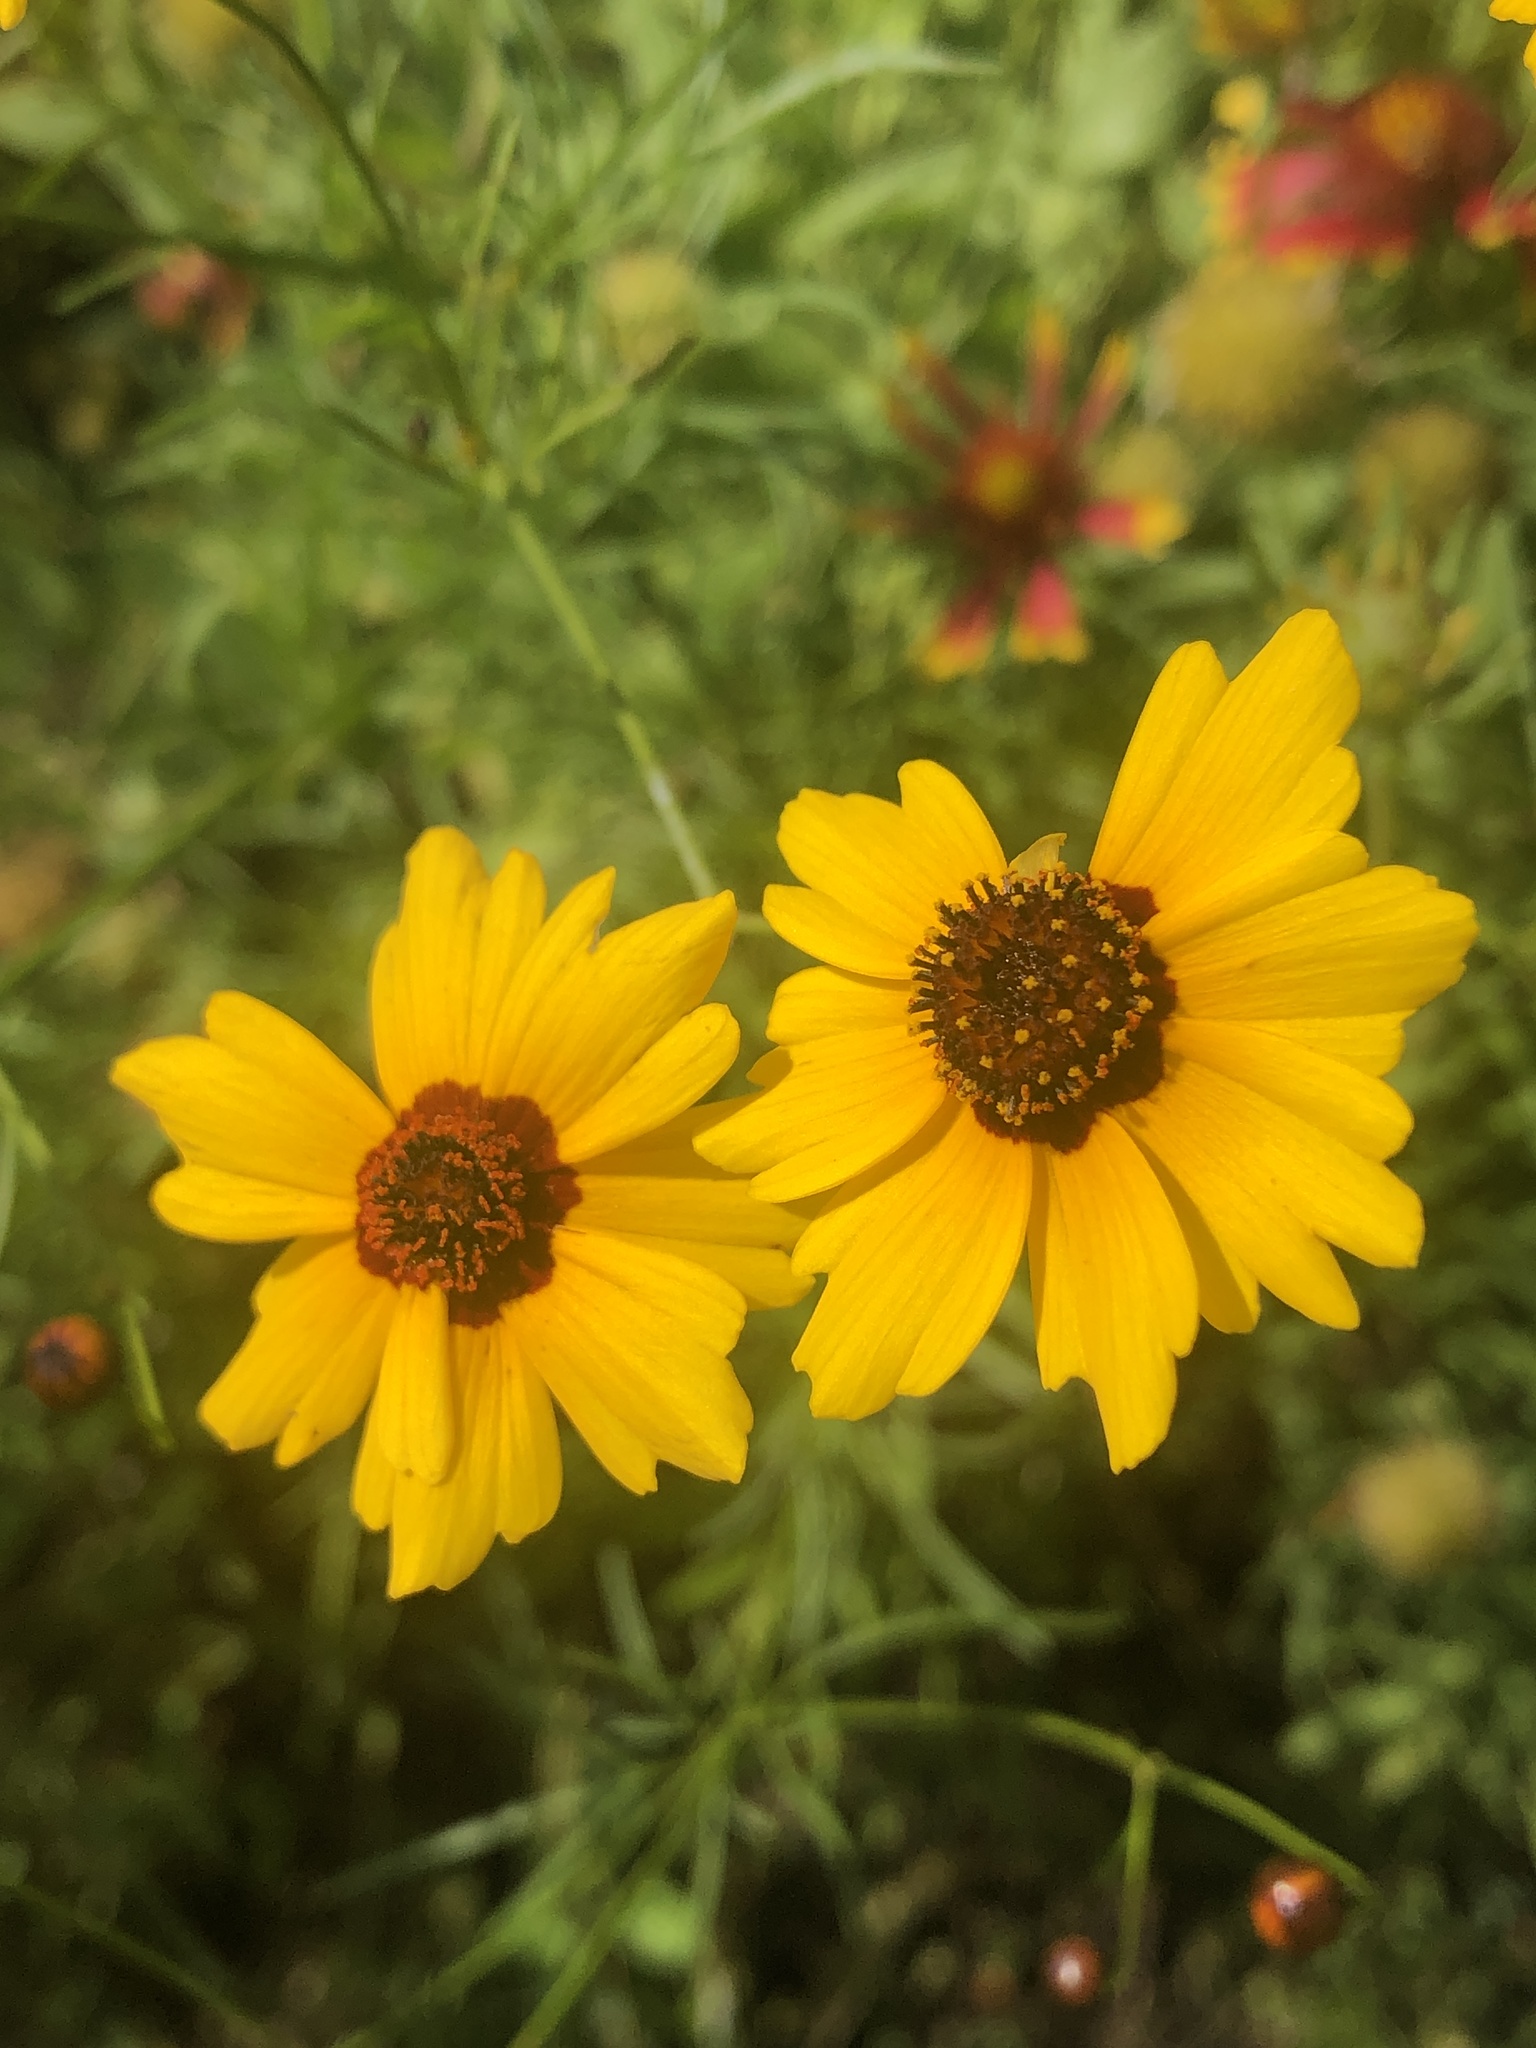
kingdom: Plantae
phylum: Tracheophyta
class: Magnoliopsida
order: Asterales
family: Asteraceae
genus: Coreopsis
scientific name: Coreopsis tinctoria
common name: Garden tickseed
